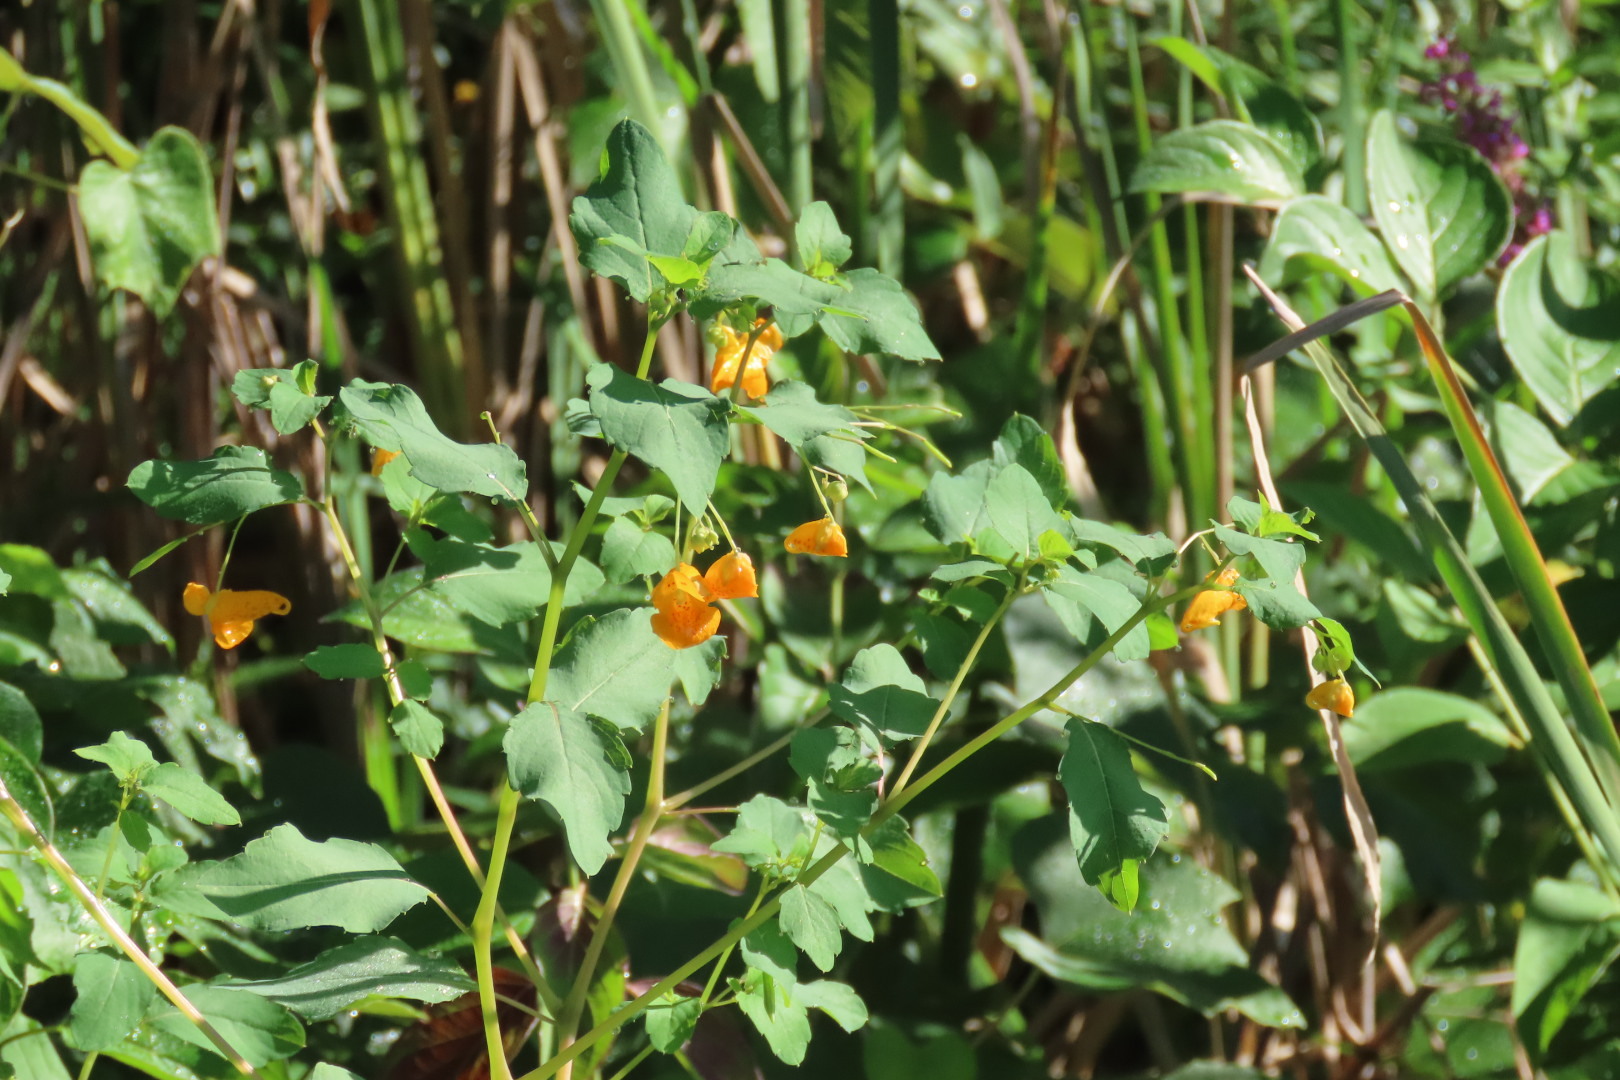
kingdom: Plantae
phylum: Tracheophyta
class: Magnoliopsida
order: Ericales
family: Balsaminaceae
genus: Impatiens
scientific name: Impatiens capensis
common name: Orange balsam
